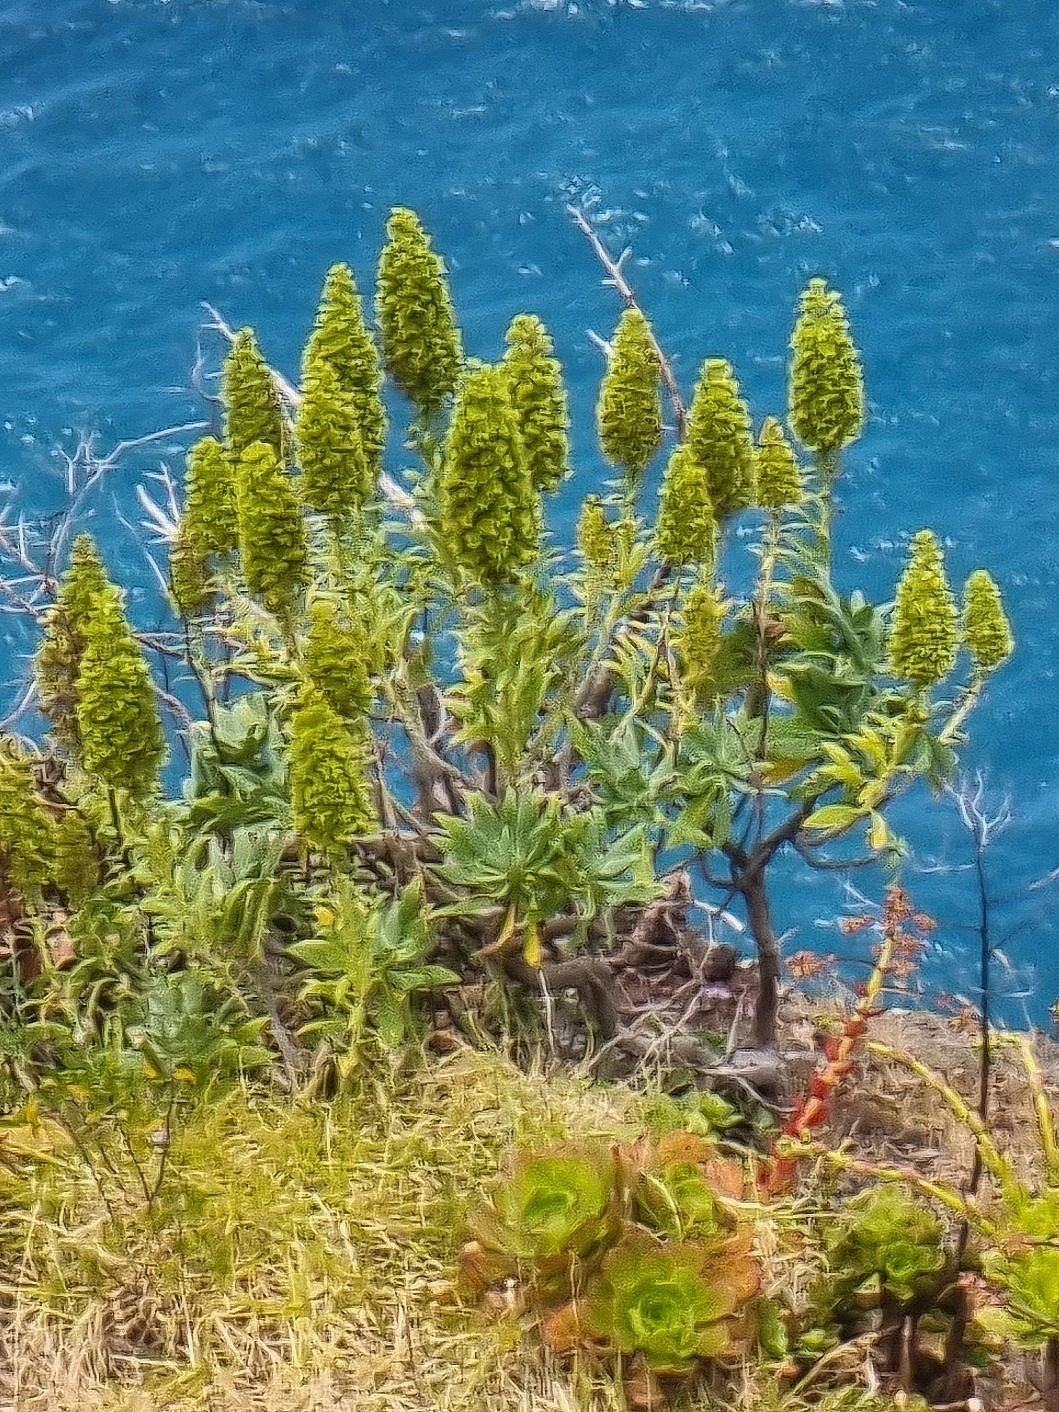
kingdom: Plantae
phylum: Tracheophyta
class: Magnoliopsida
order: Boraginales
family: Boraginaceae
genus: Echium
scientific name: Echium nervosum
